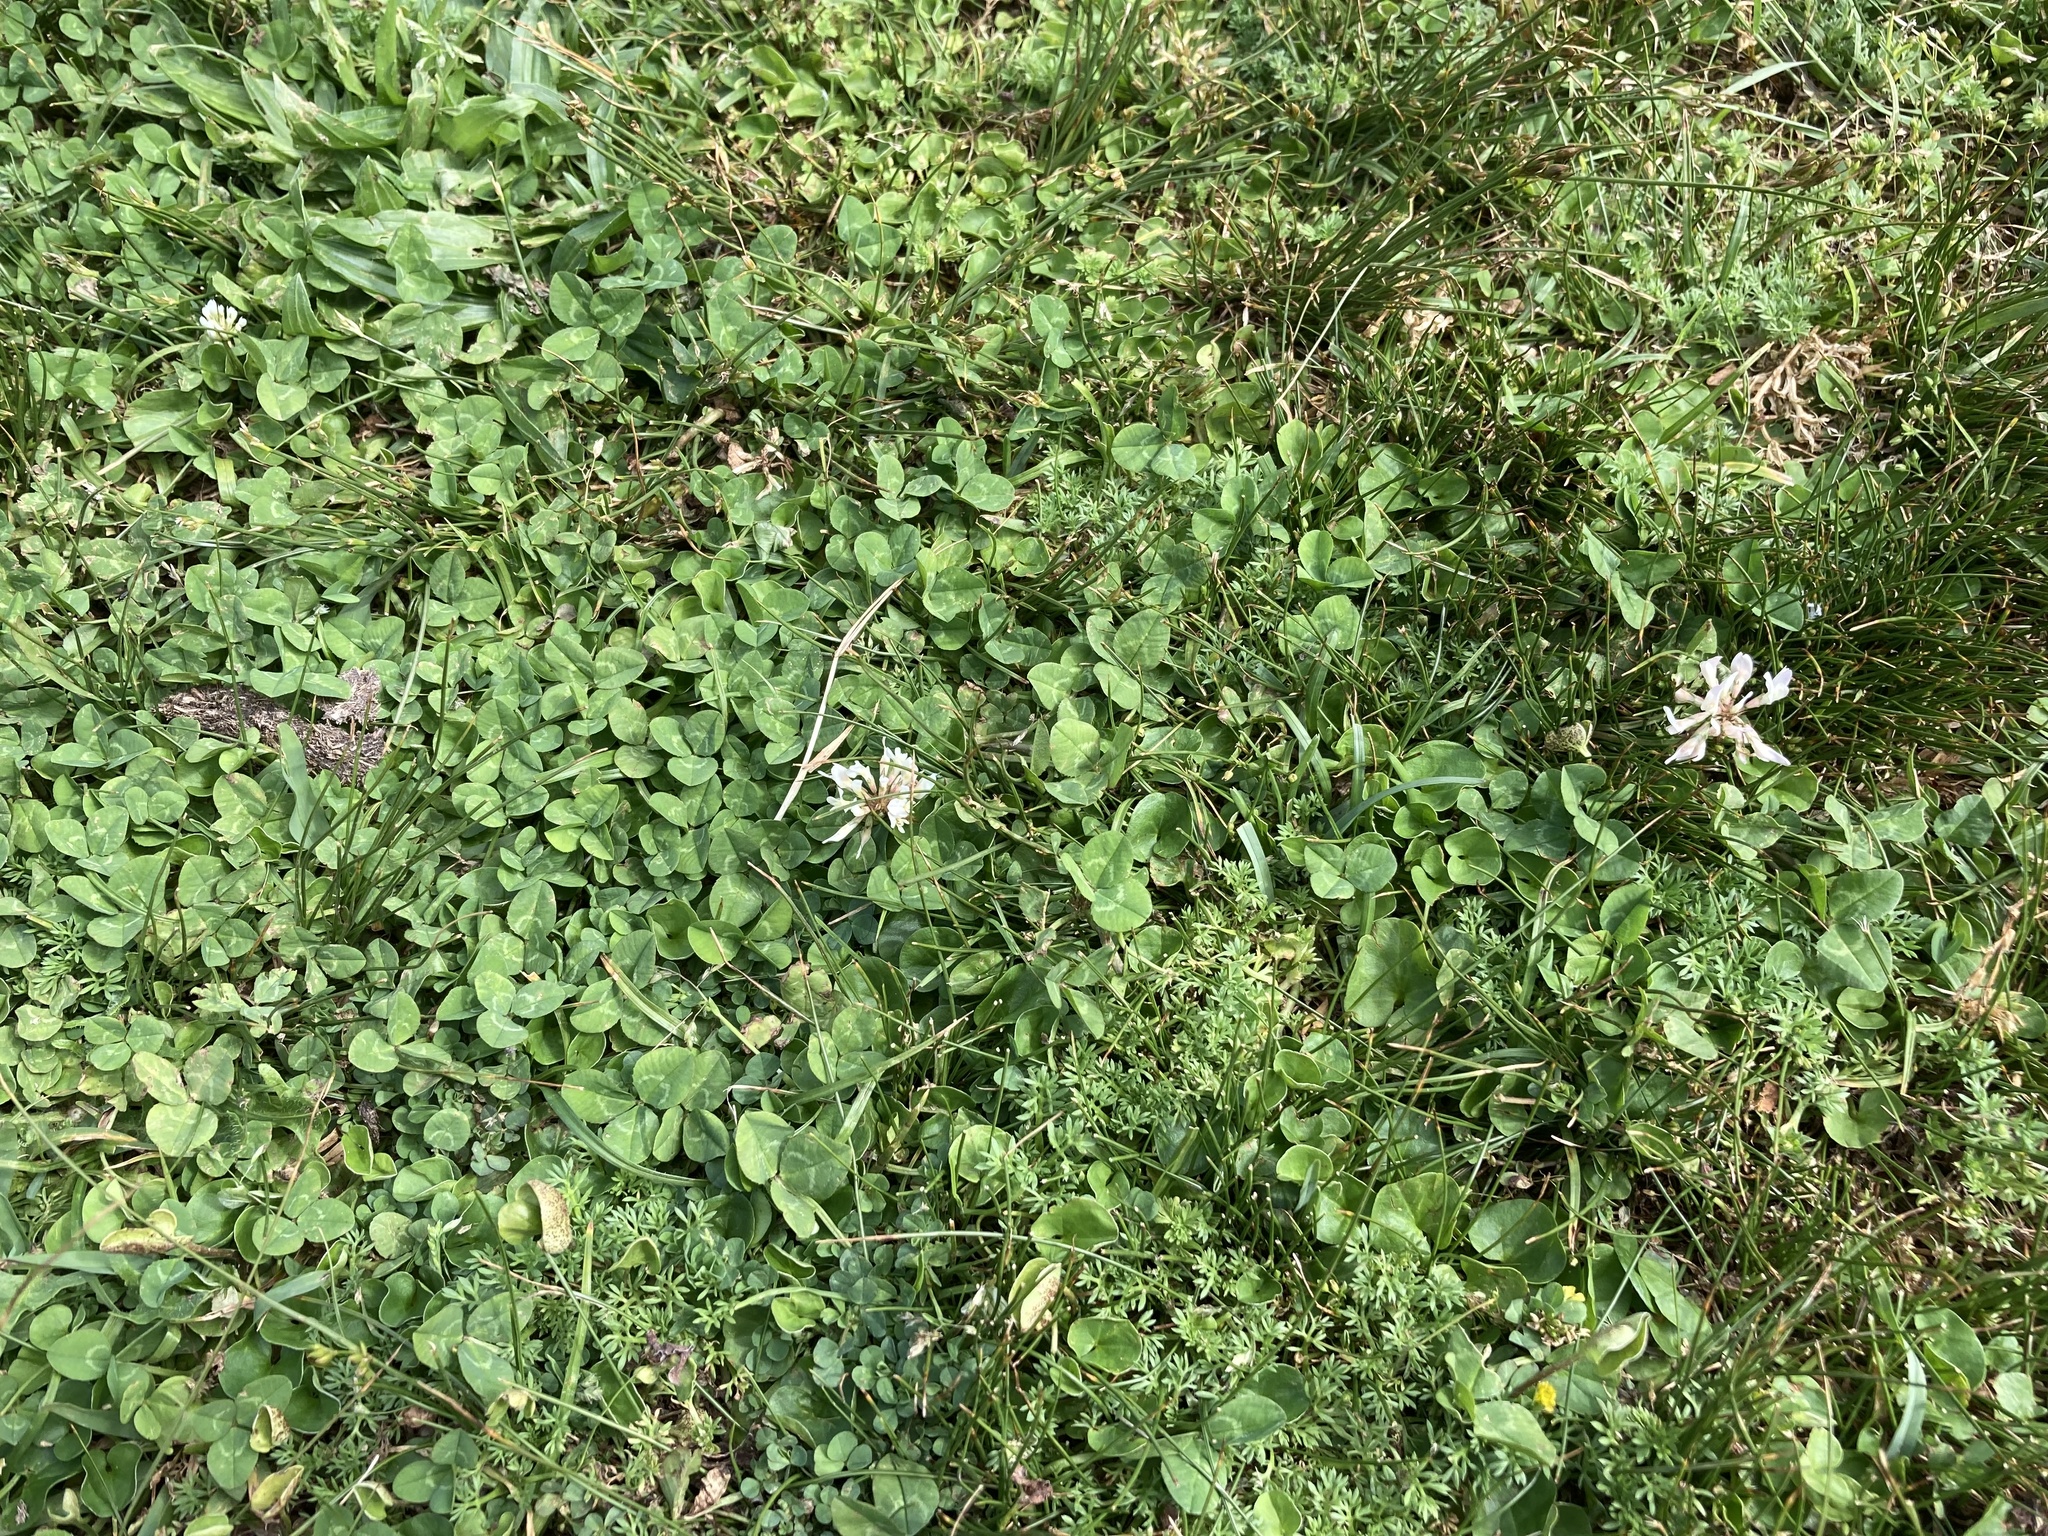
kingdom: Plantae
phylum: Tracheophyta
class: Magnoliopsida
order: Fabales
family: Fabaceae
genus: Trifolium
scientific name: Trifolium repens
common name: White clover
